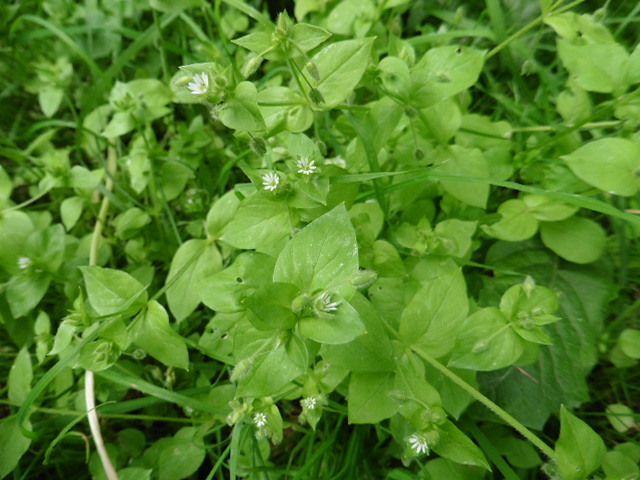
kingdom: Plantae
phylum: Tracheophyta
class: Magnoliopsida
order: Caryophyllales
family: Caryophyllaceae
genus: Stellaria
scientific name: Stellaria media
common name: Common chickweed
